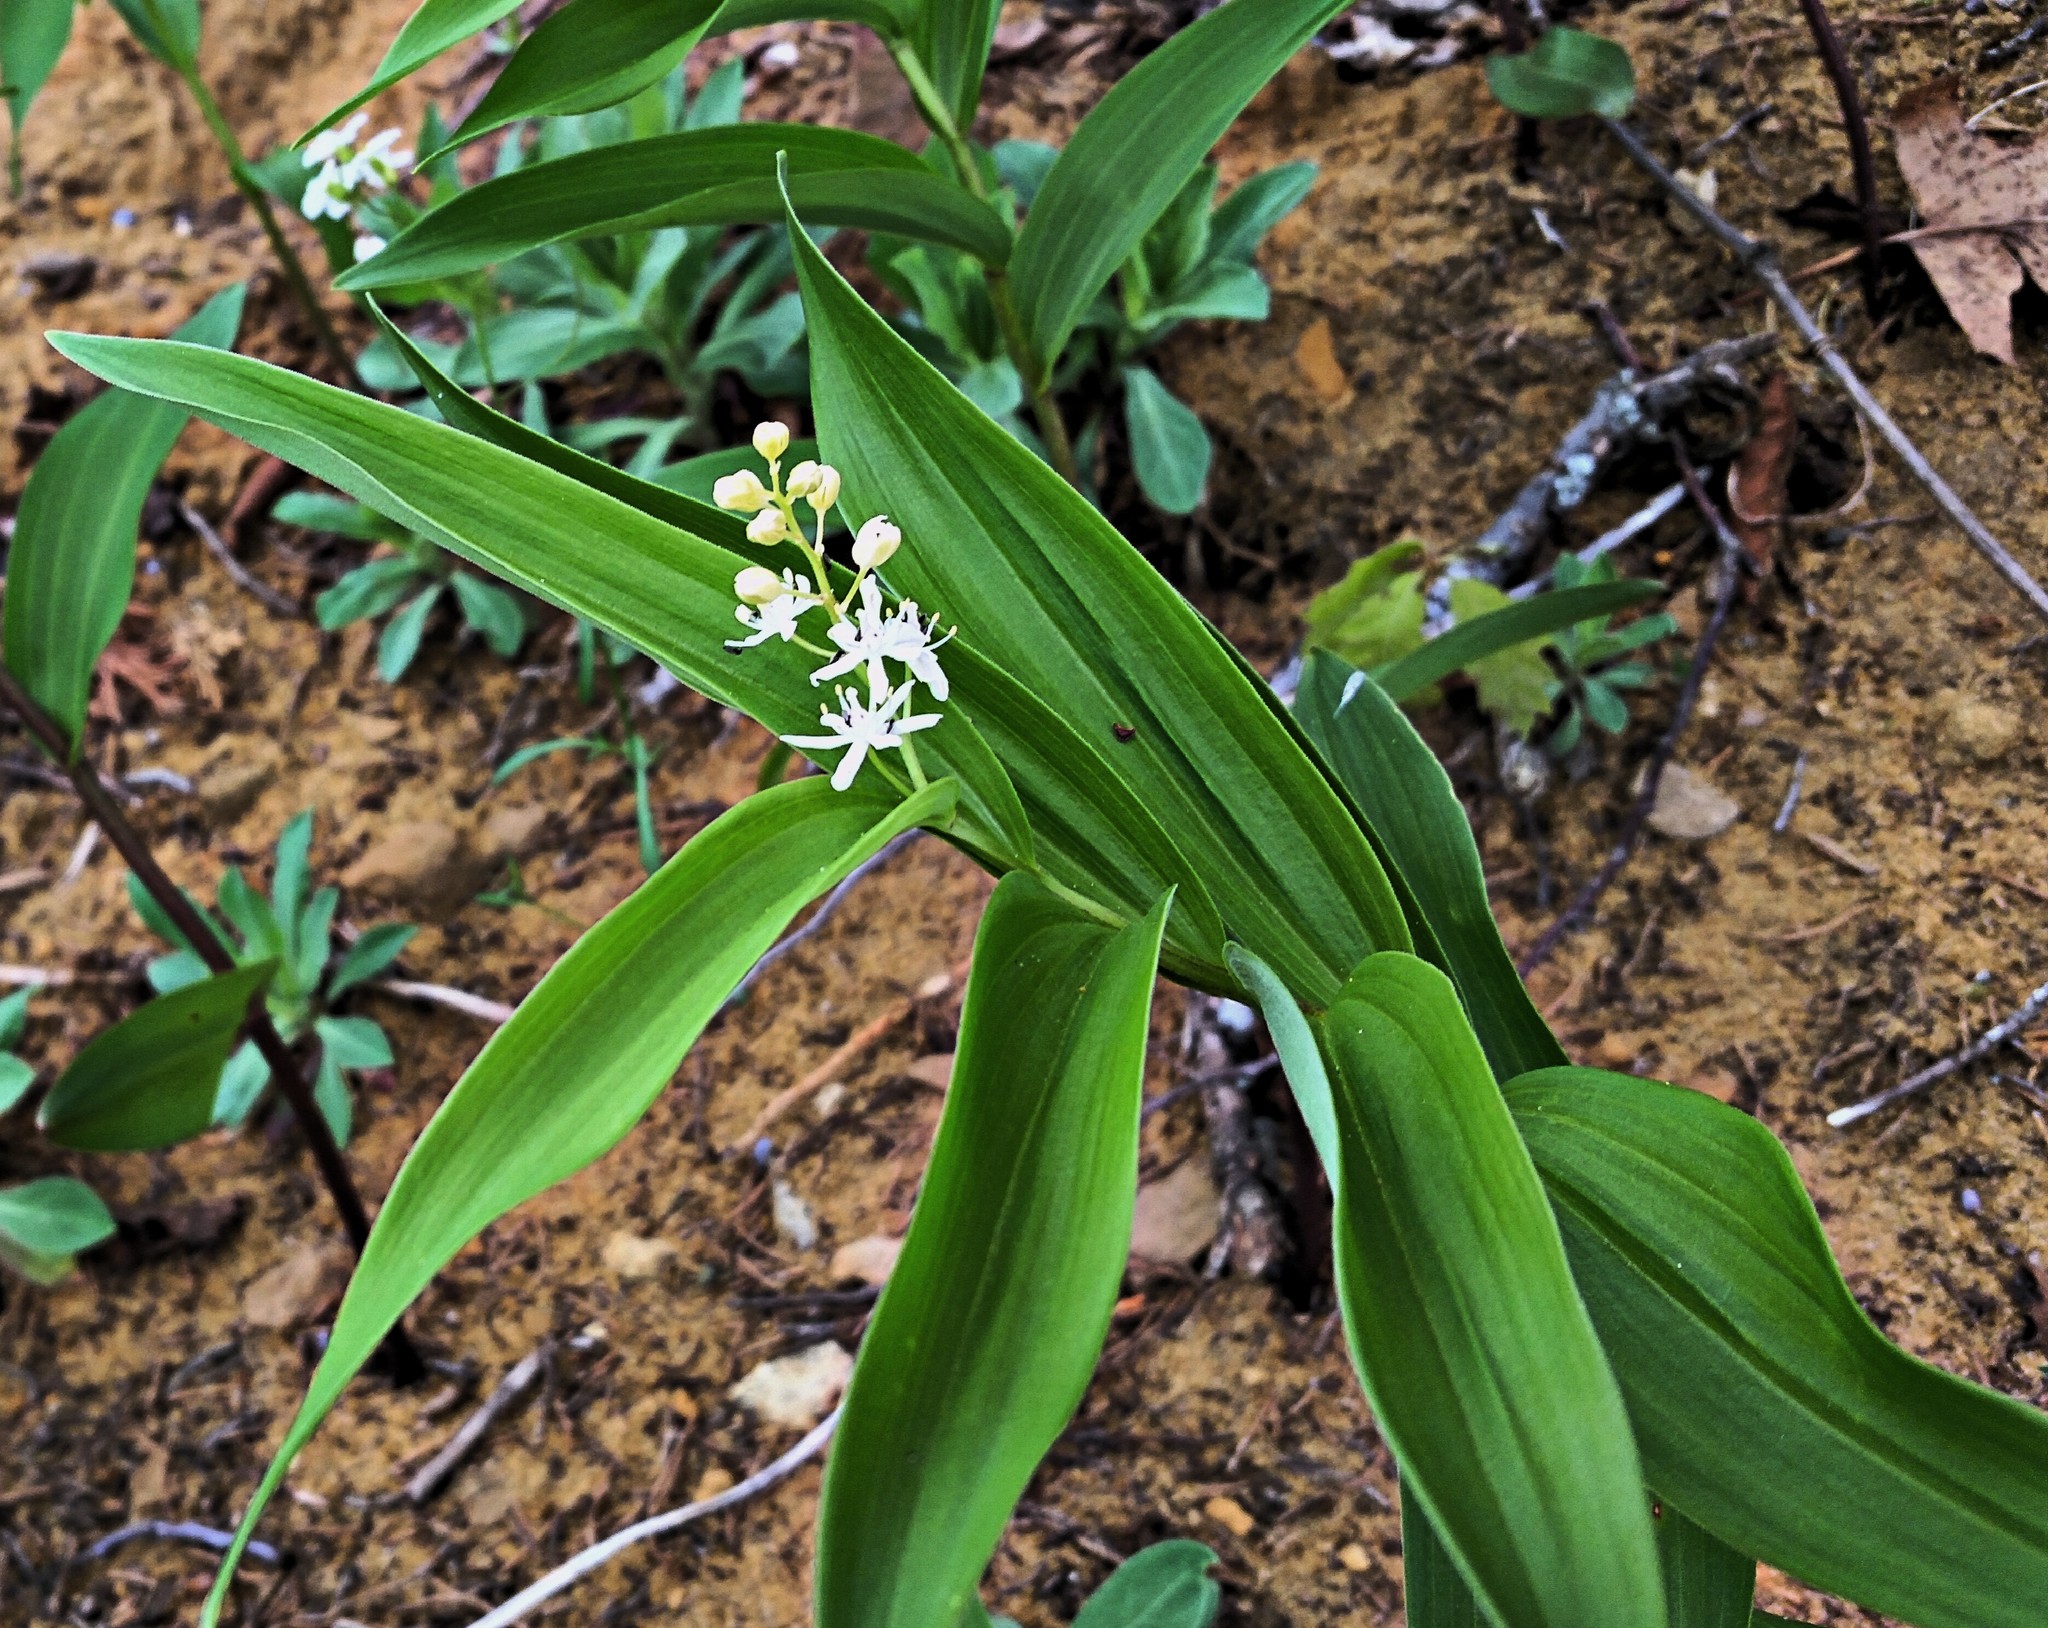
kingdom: Plantae
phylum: Tracheophyta
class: Liliopsida
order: Asparagales
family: Asparagaceae
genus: Maianthemum
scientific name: Maianthemum stellatum
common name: Little false solomon's seal
